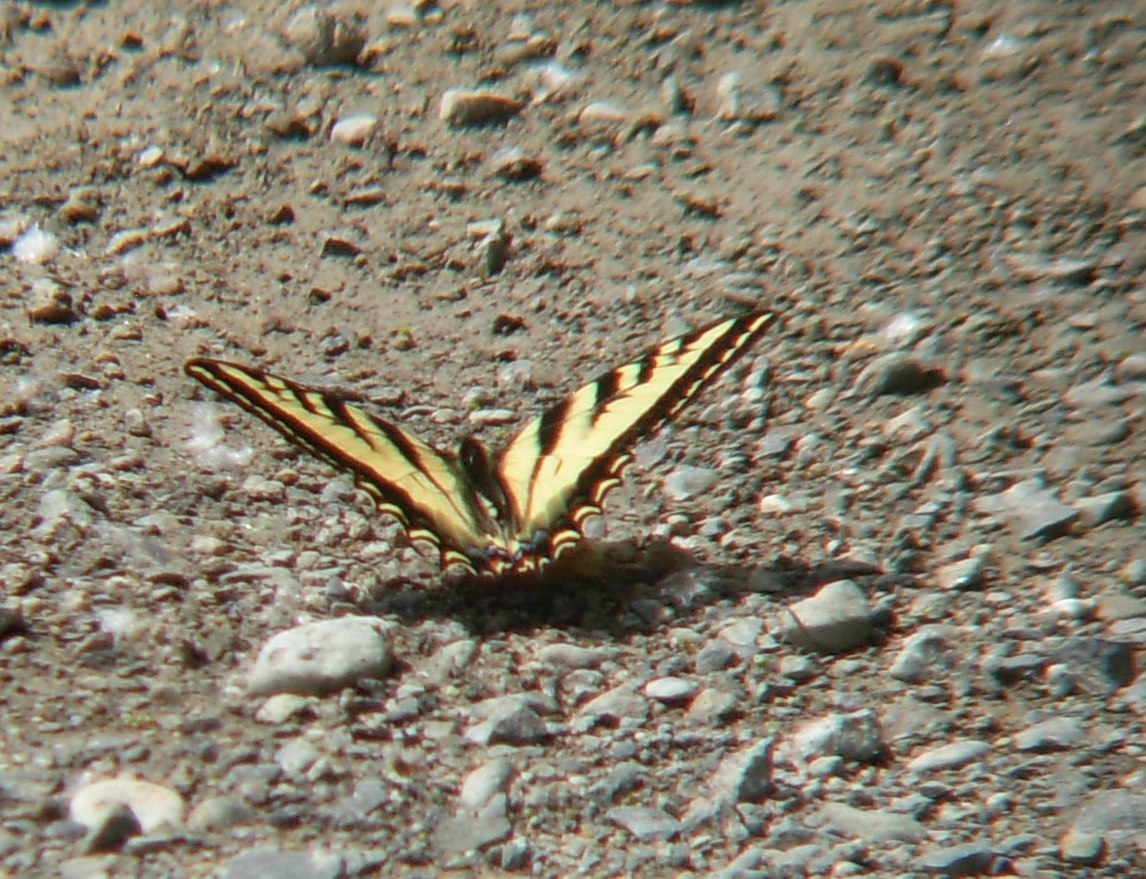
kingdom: Animalia
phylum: Arthropoda
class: Insecta
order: Lepidoptera
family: Papilionidae
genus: Papilio
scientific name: Papilio rutulus
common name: Western tiger swallowtail
